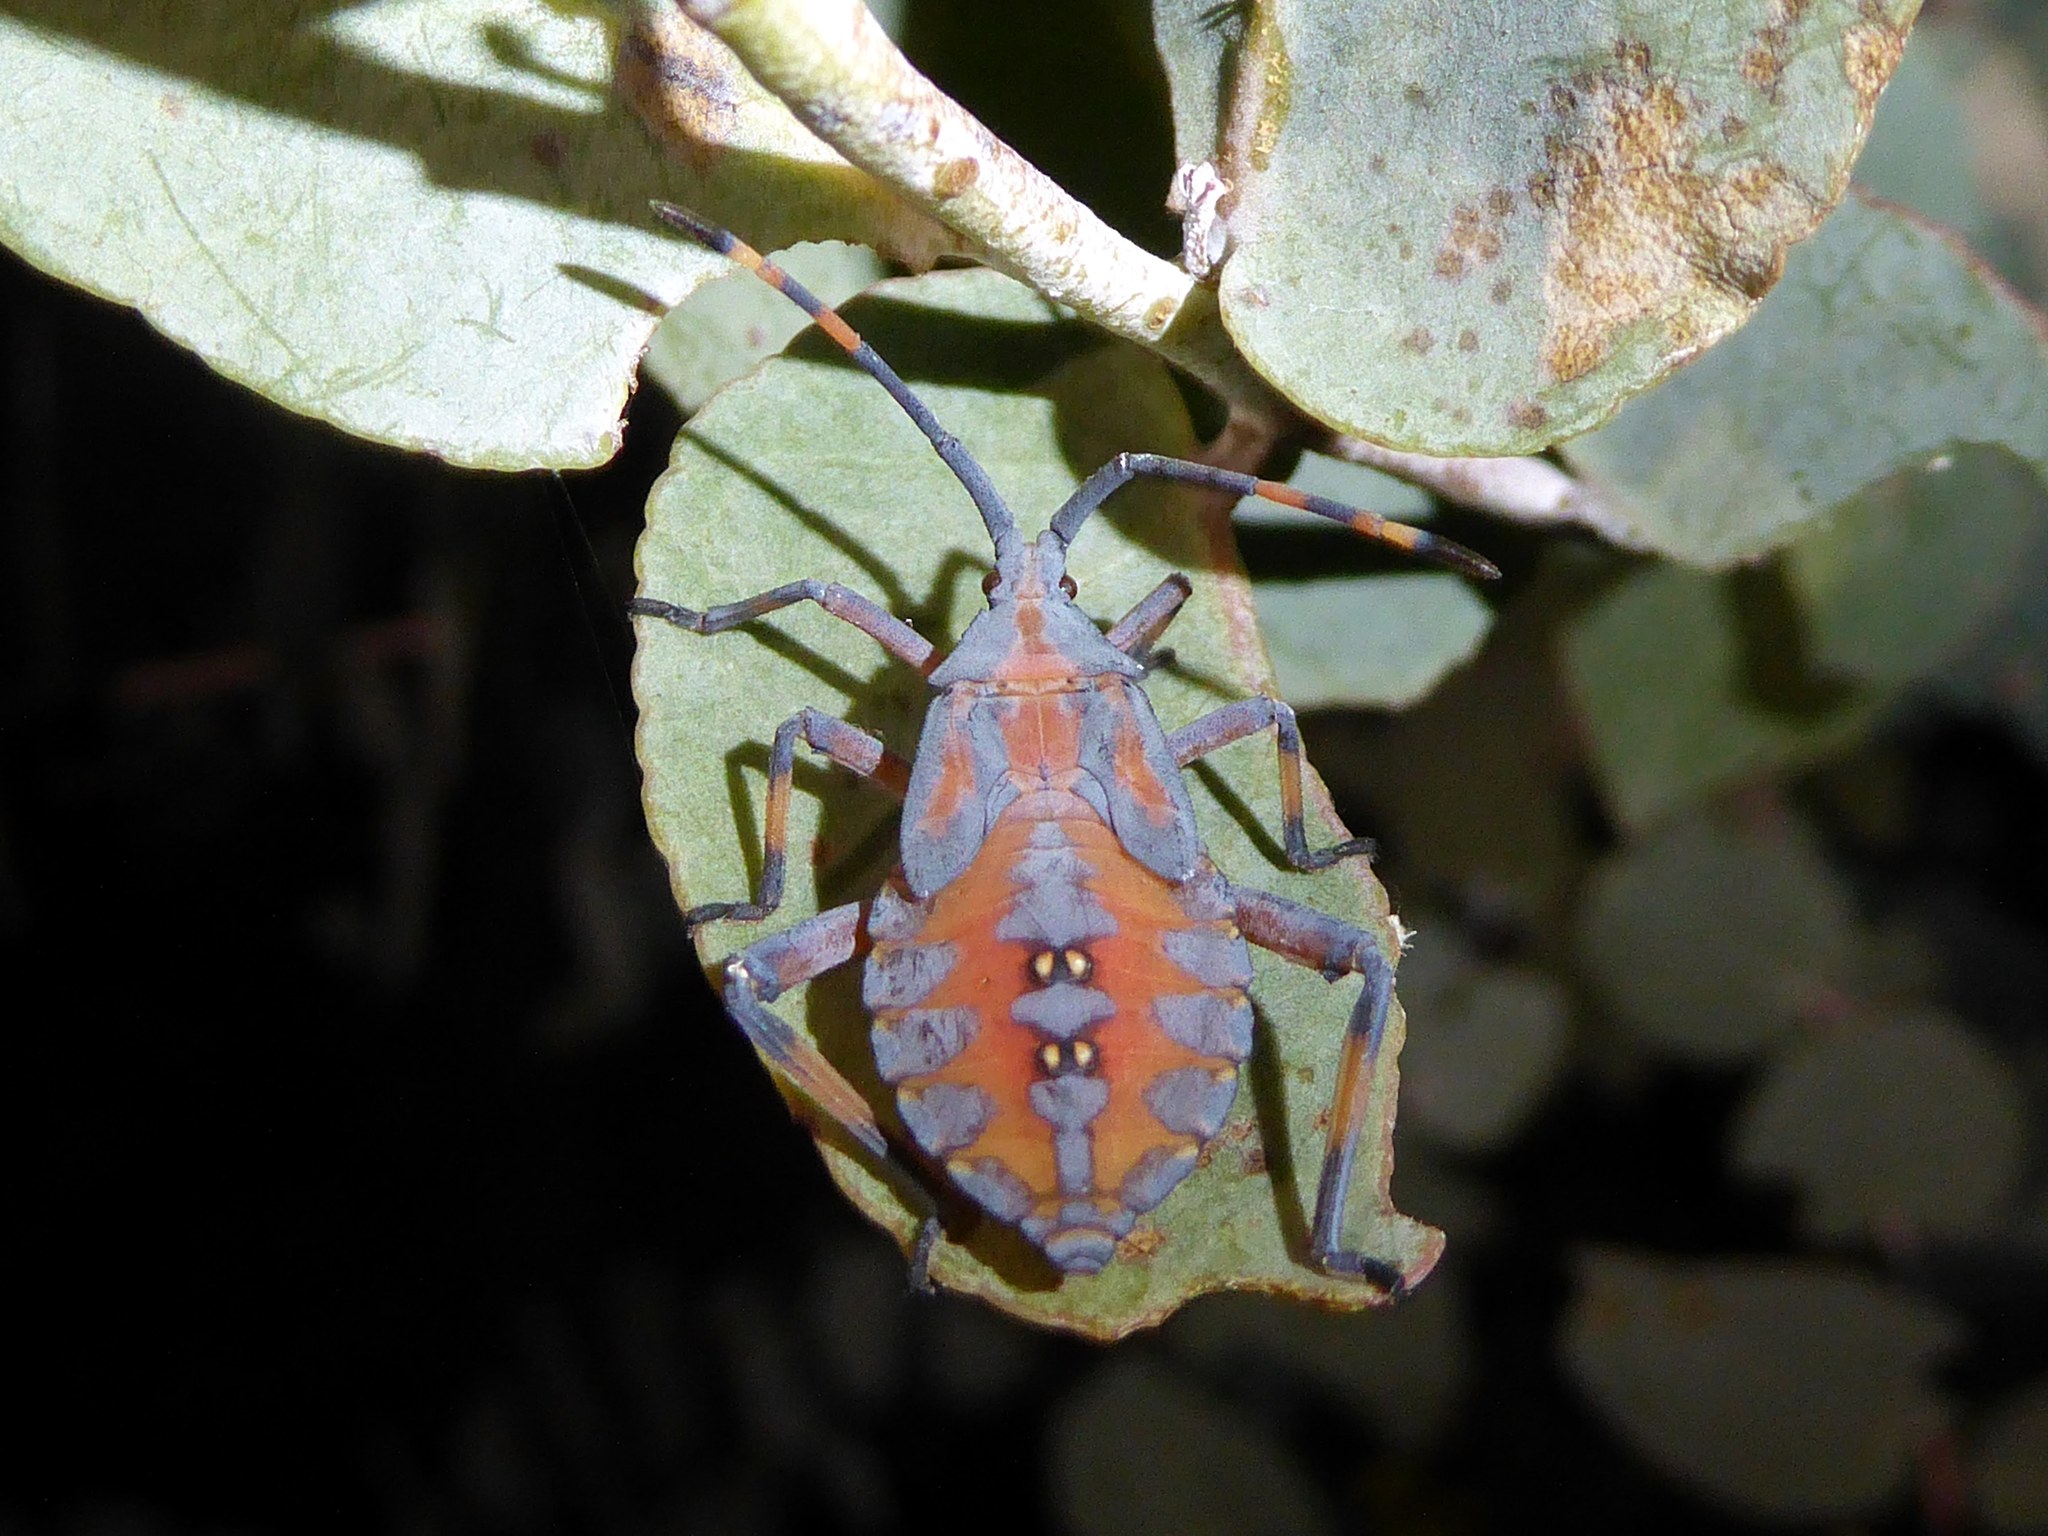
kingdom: Animalia
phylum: Arthropoda
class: Insecta
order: Hemiptera
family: Coreidae
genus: Amorbus
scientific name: Amorbus rubiginosus
